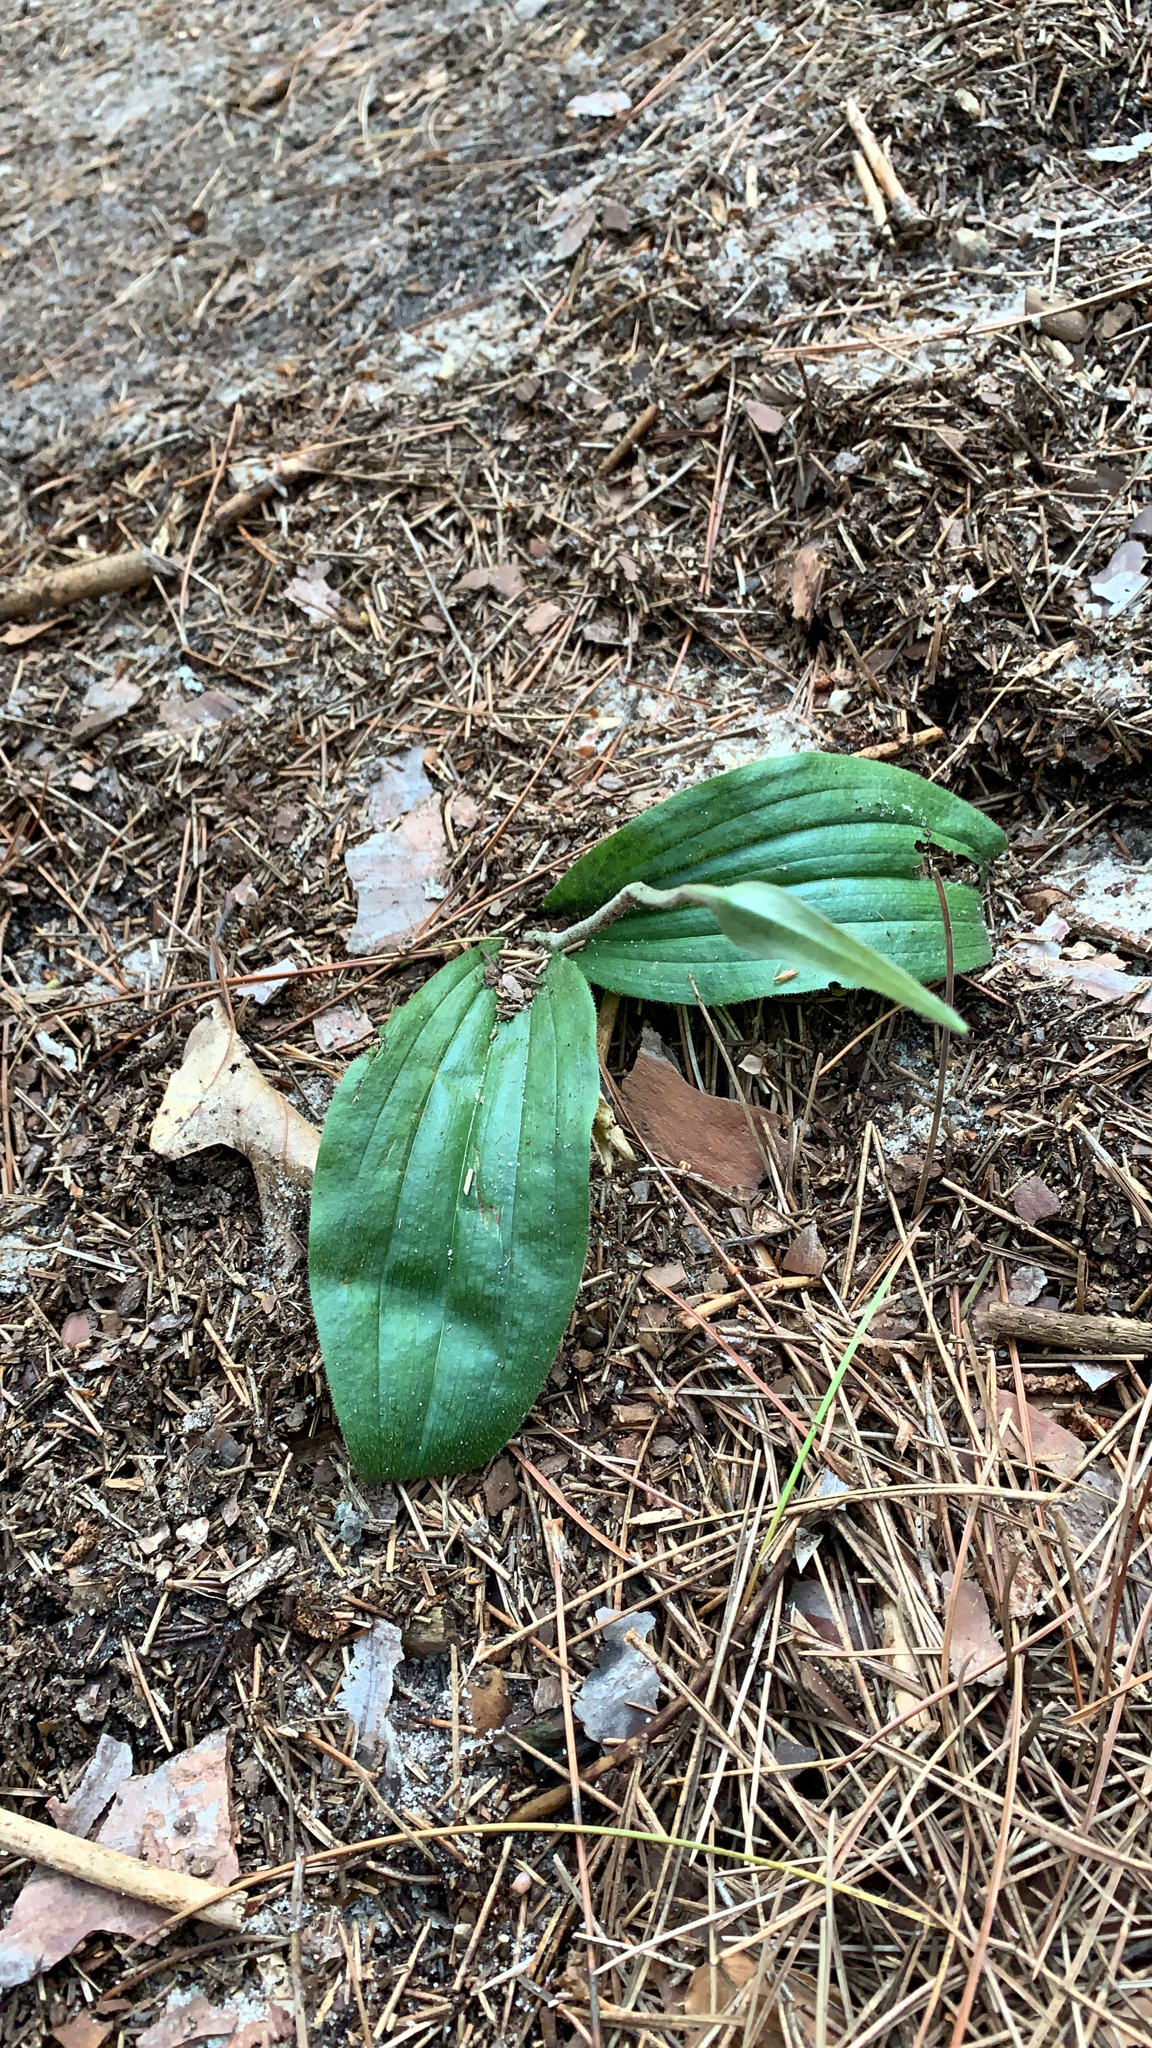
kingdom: Plantae
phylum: Tracheophyta
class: Liliopsida
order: Asparagales
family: Orchidaceae
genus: Cypripedium
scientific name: Cypripedium acaule
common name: Pink lady's-slipper
